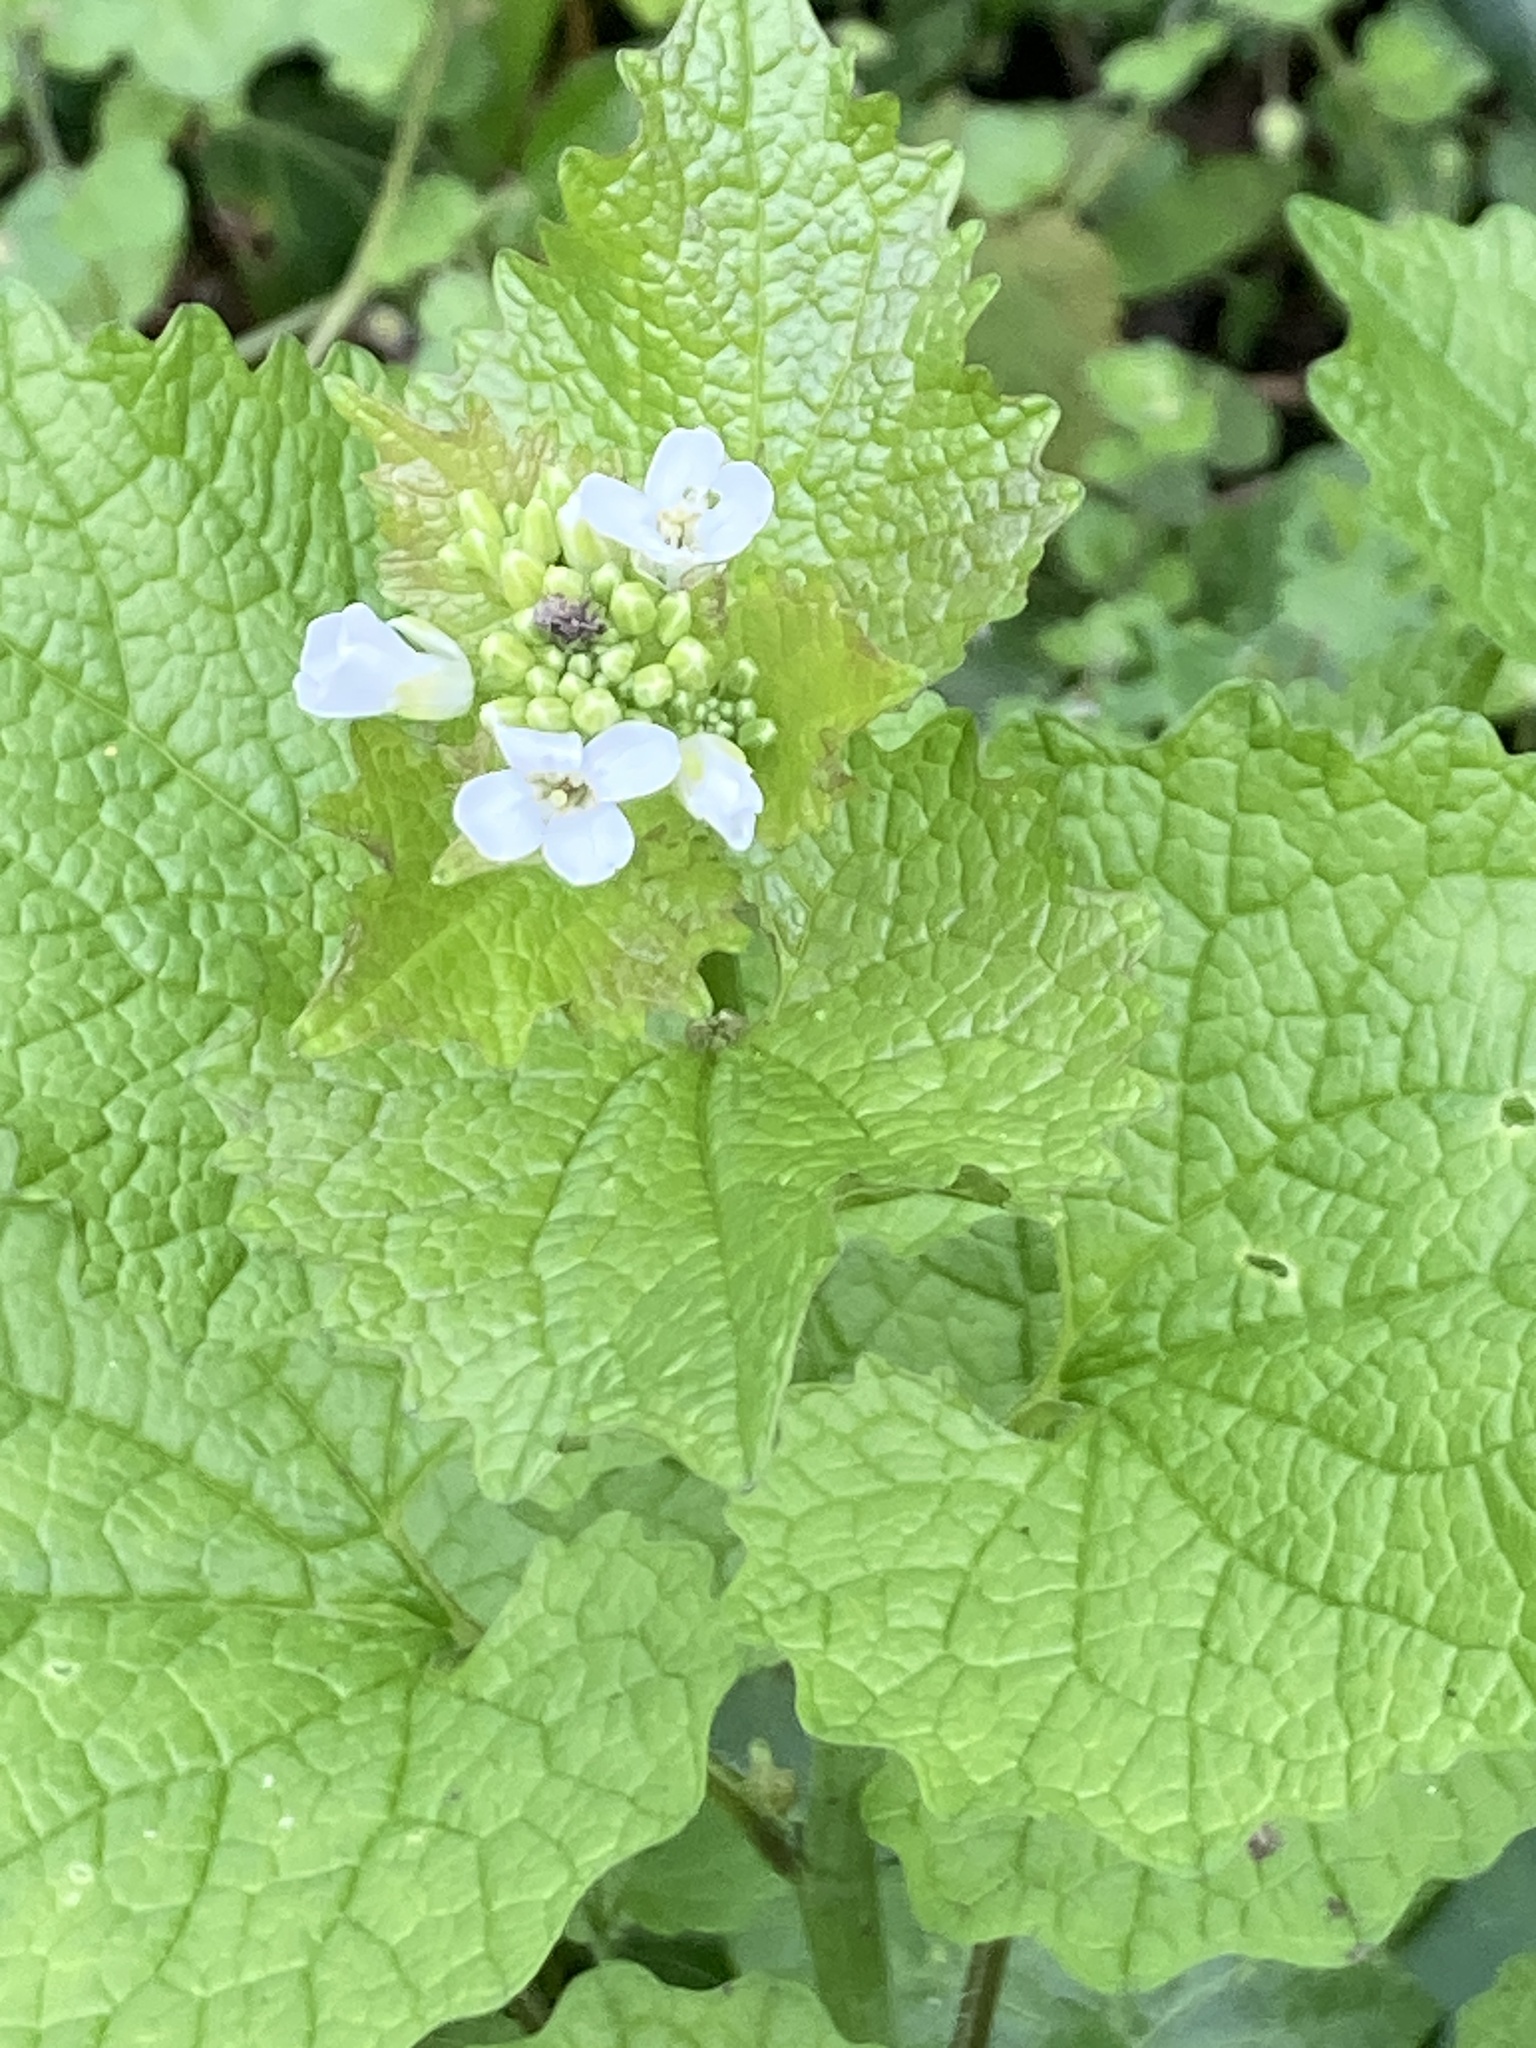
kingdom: Plantae
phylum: Tracheophyta
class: Magnoliopsida
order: Brassicales
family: Brassicaceae
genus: Alliaria
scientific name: Alliaria petiolata
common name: Garlic mustard
